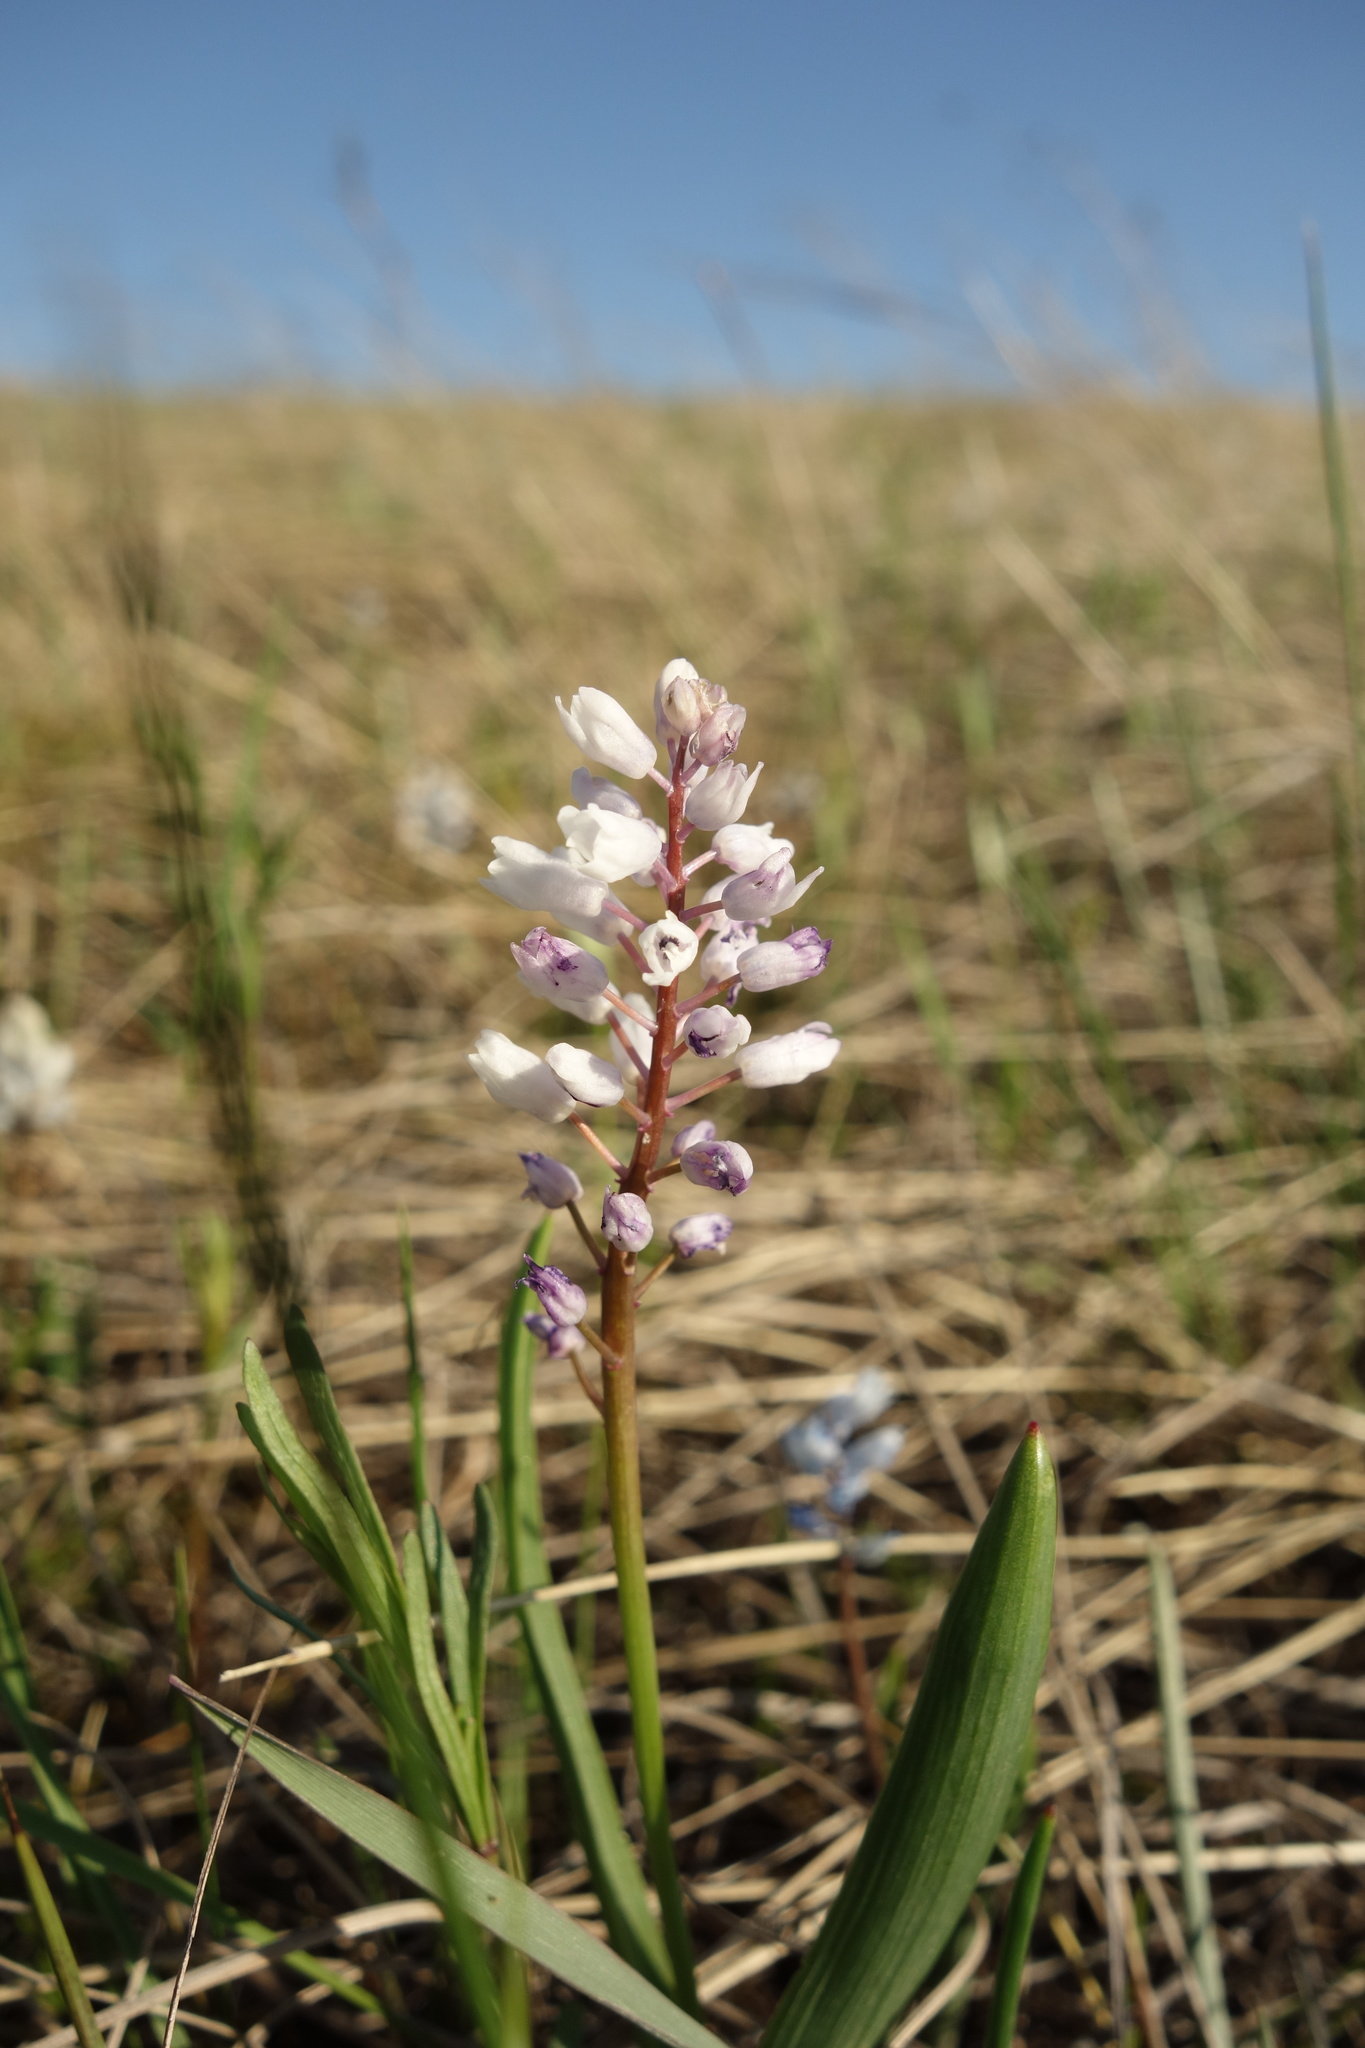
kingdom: Plantae
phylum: Tracheophyta
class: Liliopsida
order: Asparagales
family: Asparagaceae
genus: Hyacinthella
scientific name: Hyacinthella leucophaea
